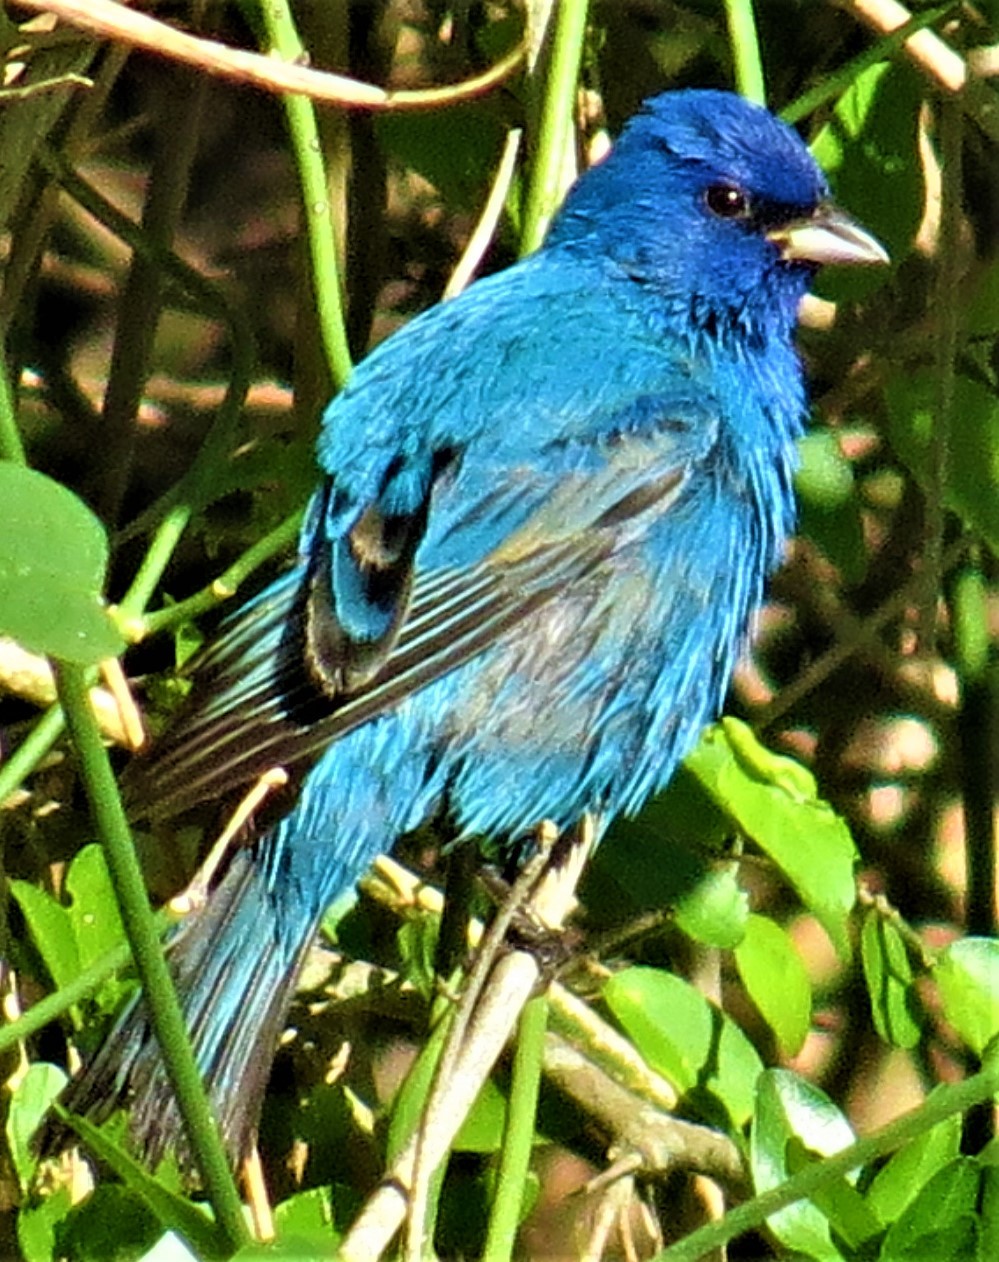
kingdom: Animalia
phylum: Chordata
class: Aves
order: Passeriformes
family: Cardinalidae
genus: Passerina
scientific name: Passerina cyanea
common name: Indigo bunting
